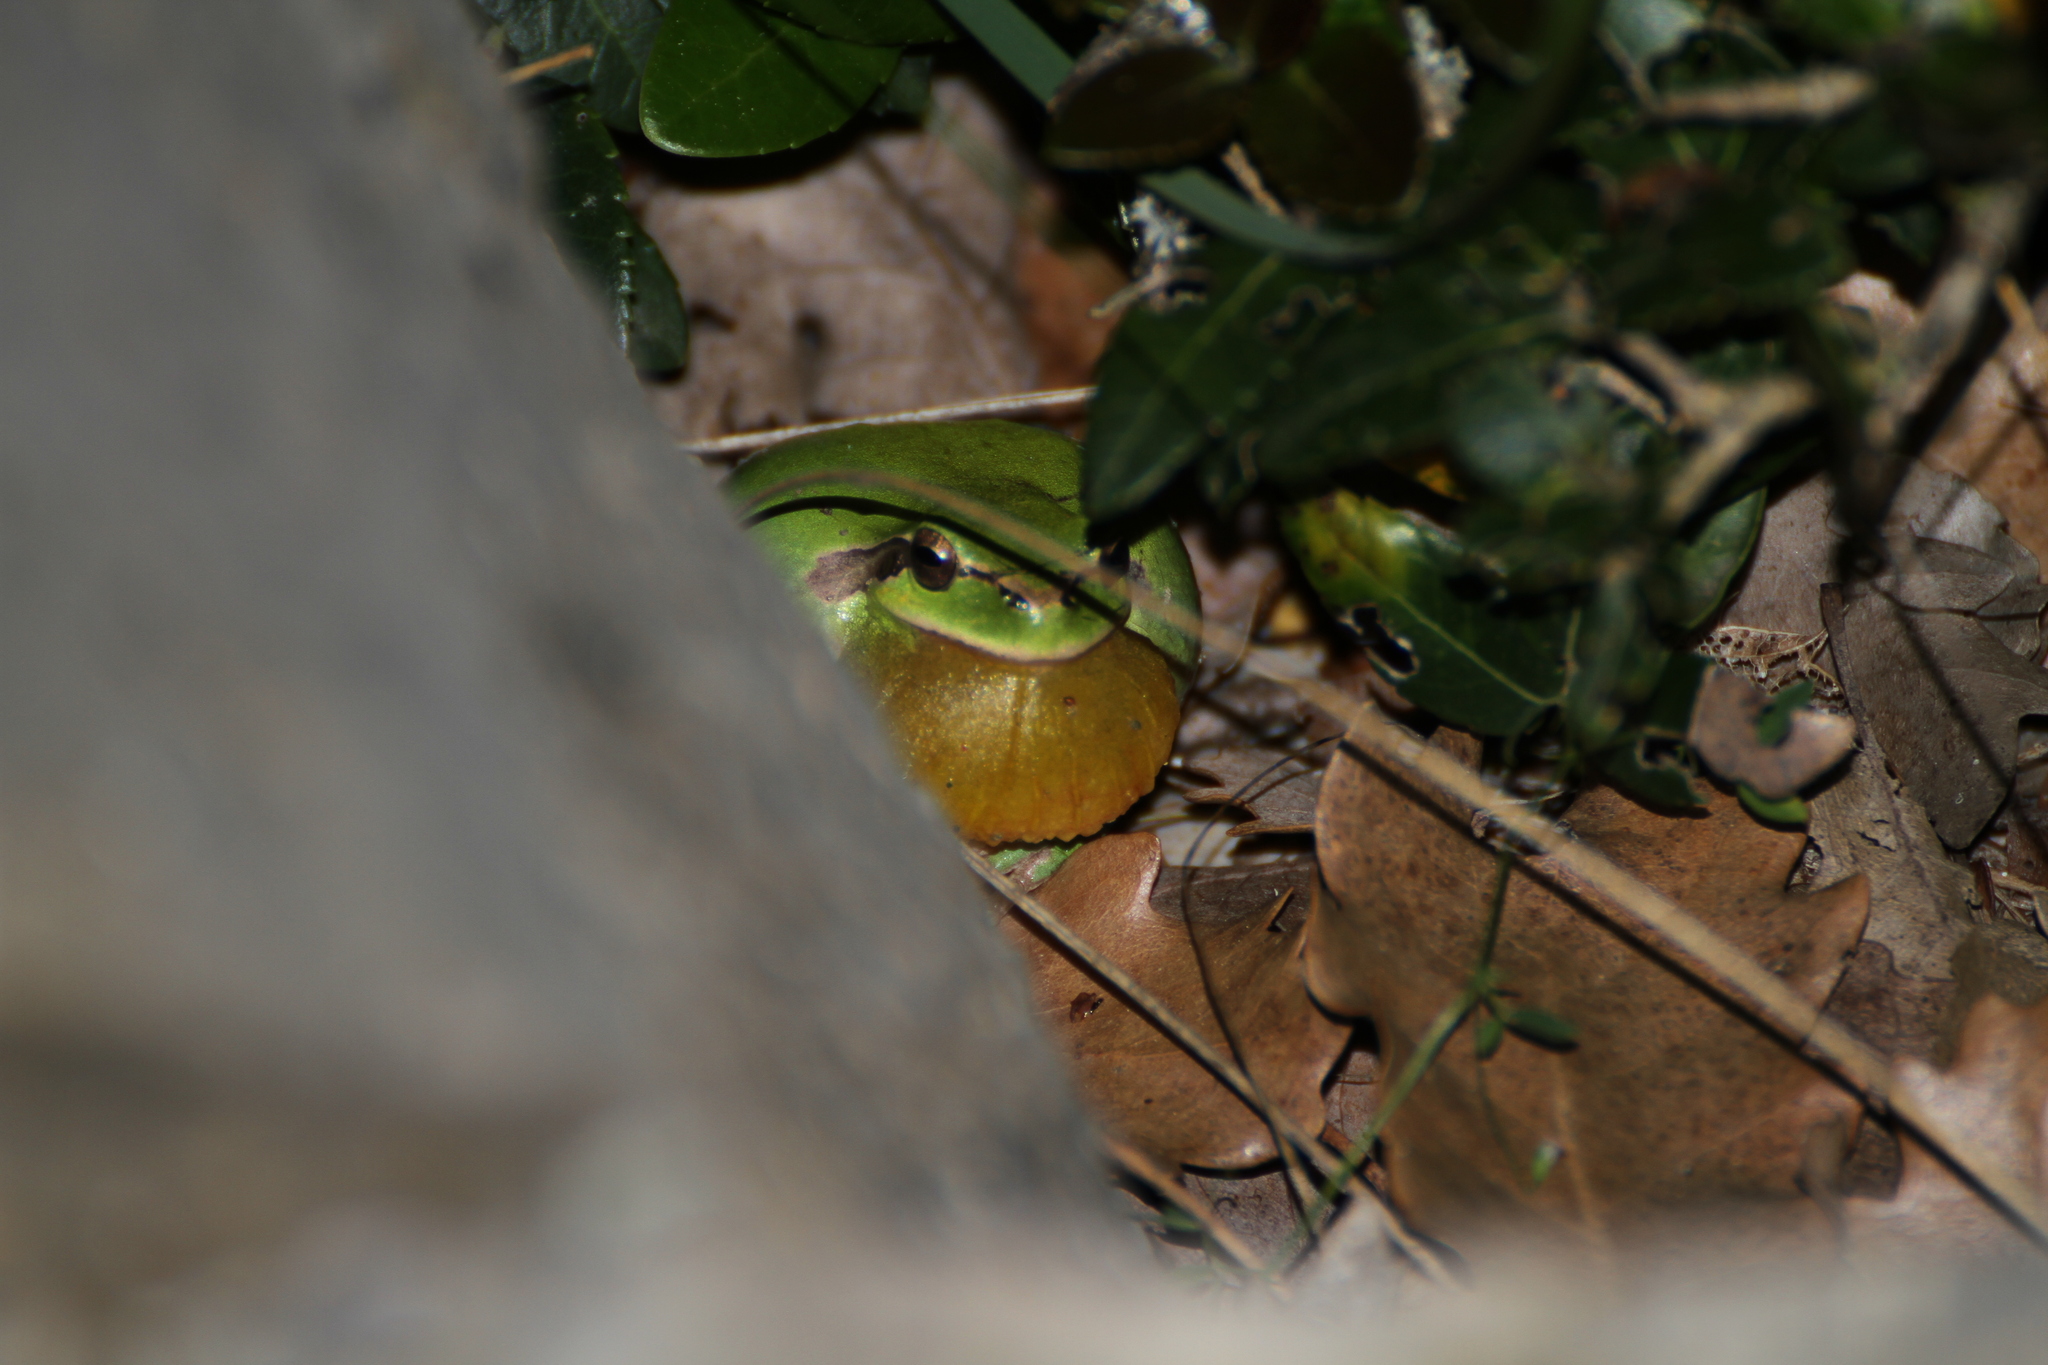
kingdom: Animalia
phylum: Chordata
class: Amphibia
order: Anura
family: Hylidae
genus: Hyla
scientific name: Hyla meridionalis
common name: Stripeless tree frog
